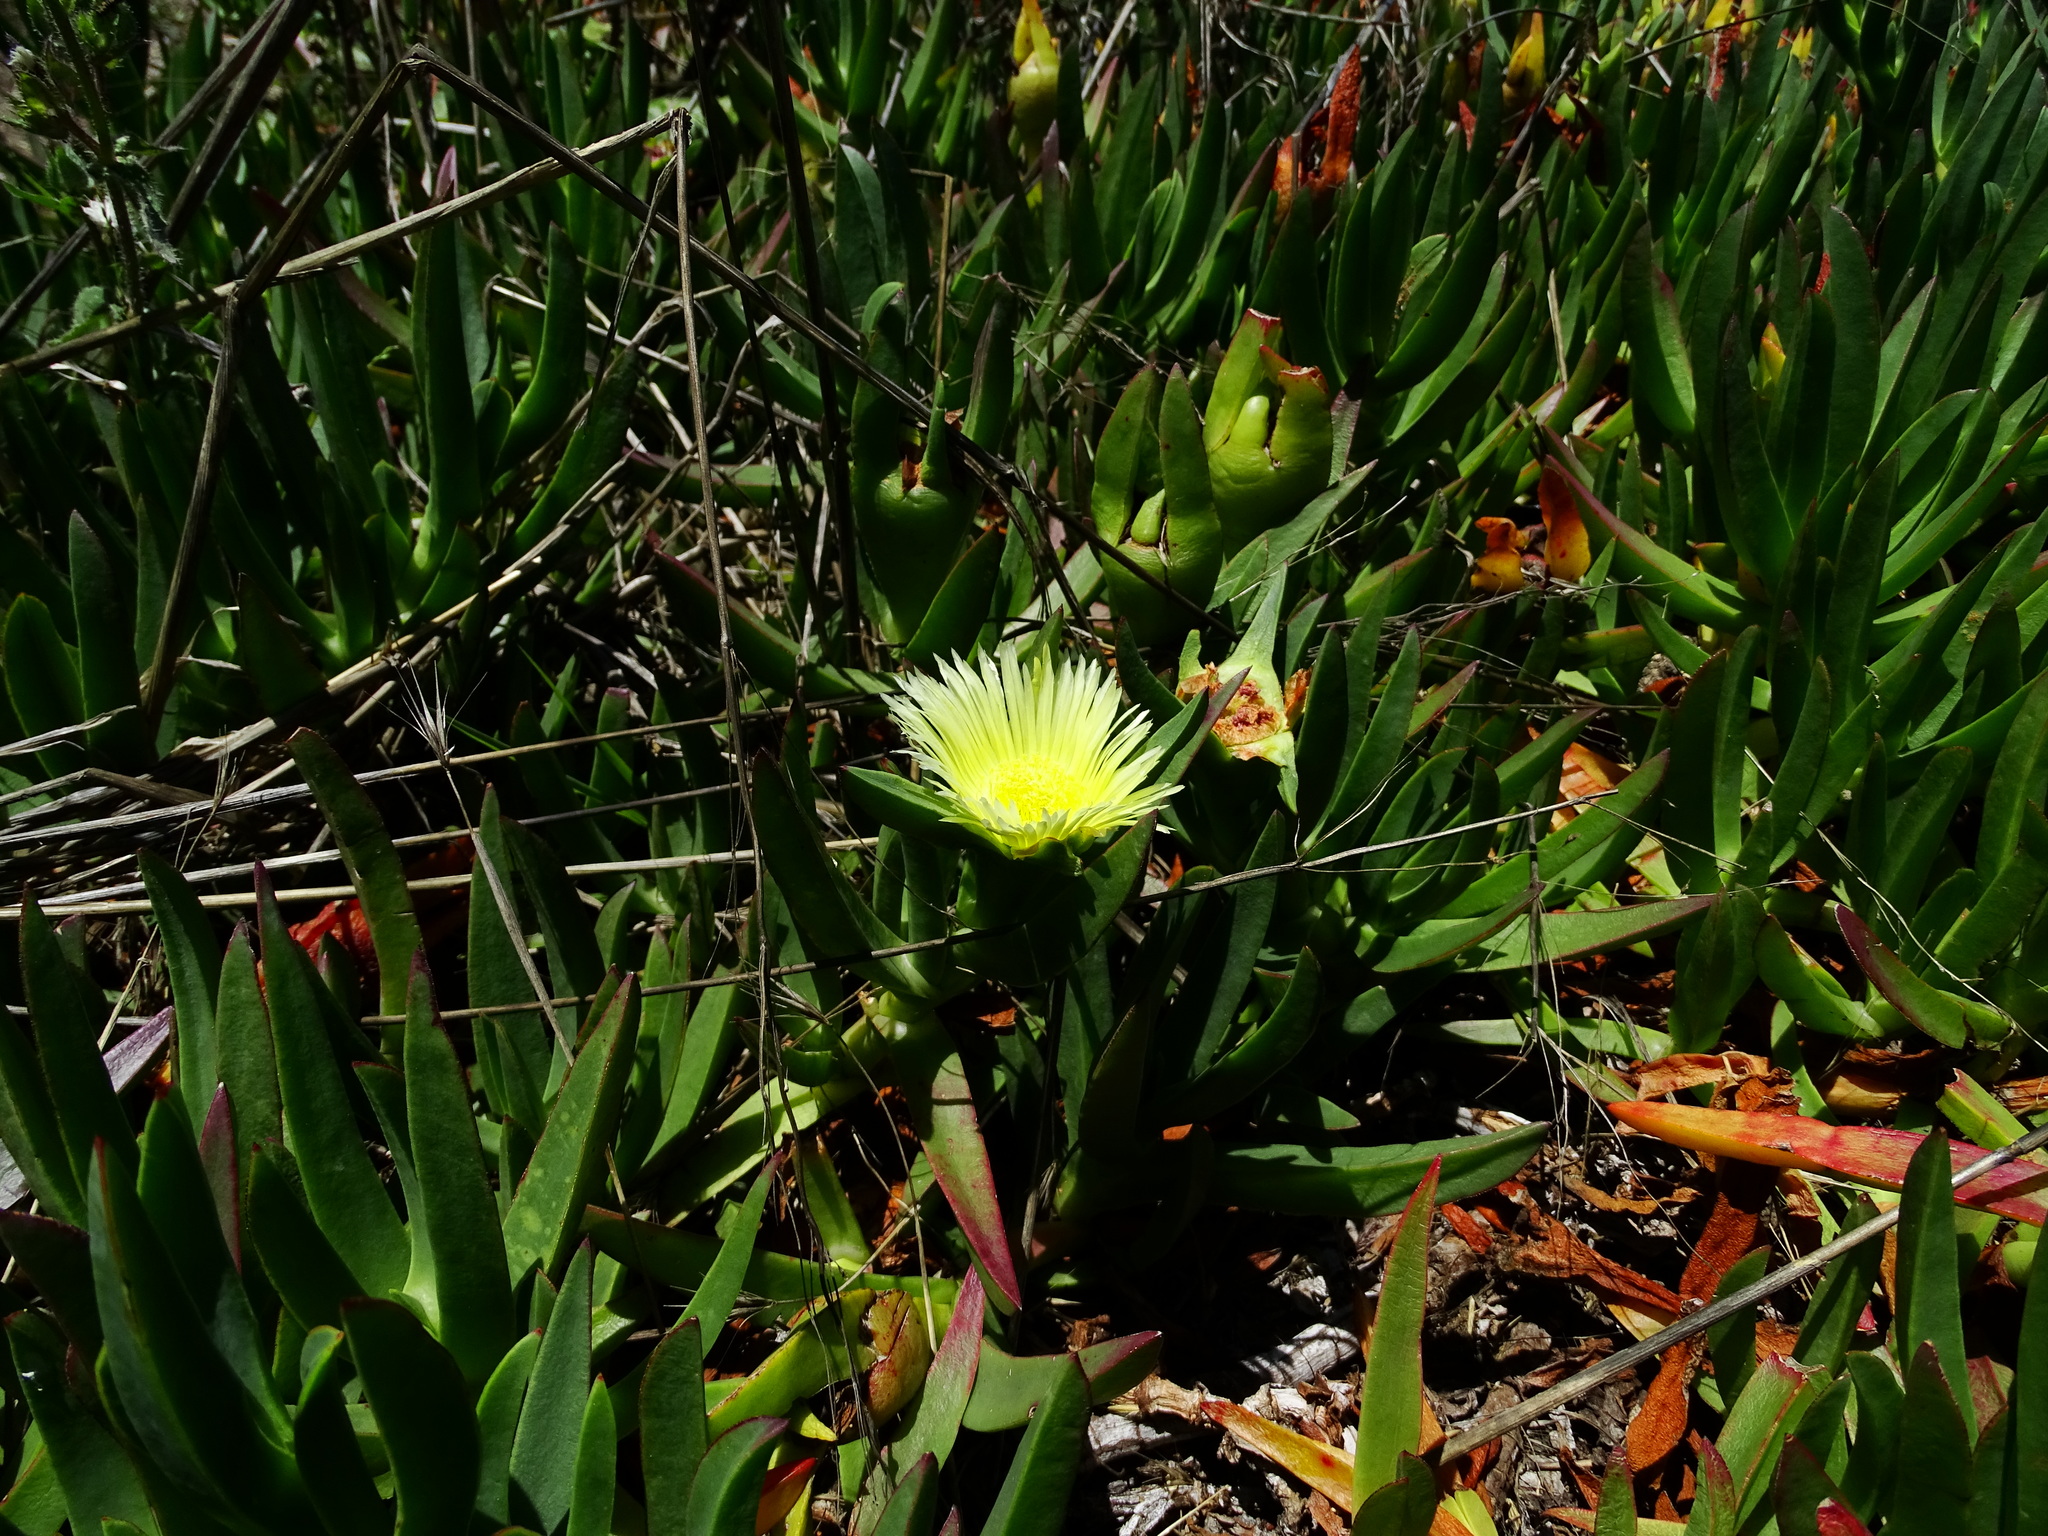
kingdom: Plantae
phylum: Tracheophyta
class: Magnoliopsida
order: Caryophyllales
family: Aizoaceae
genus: Carpobrotus
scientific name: Carpobrotus edulis
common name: Hottentot-fig
